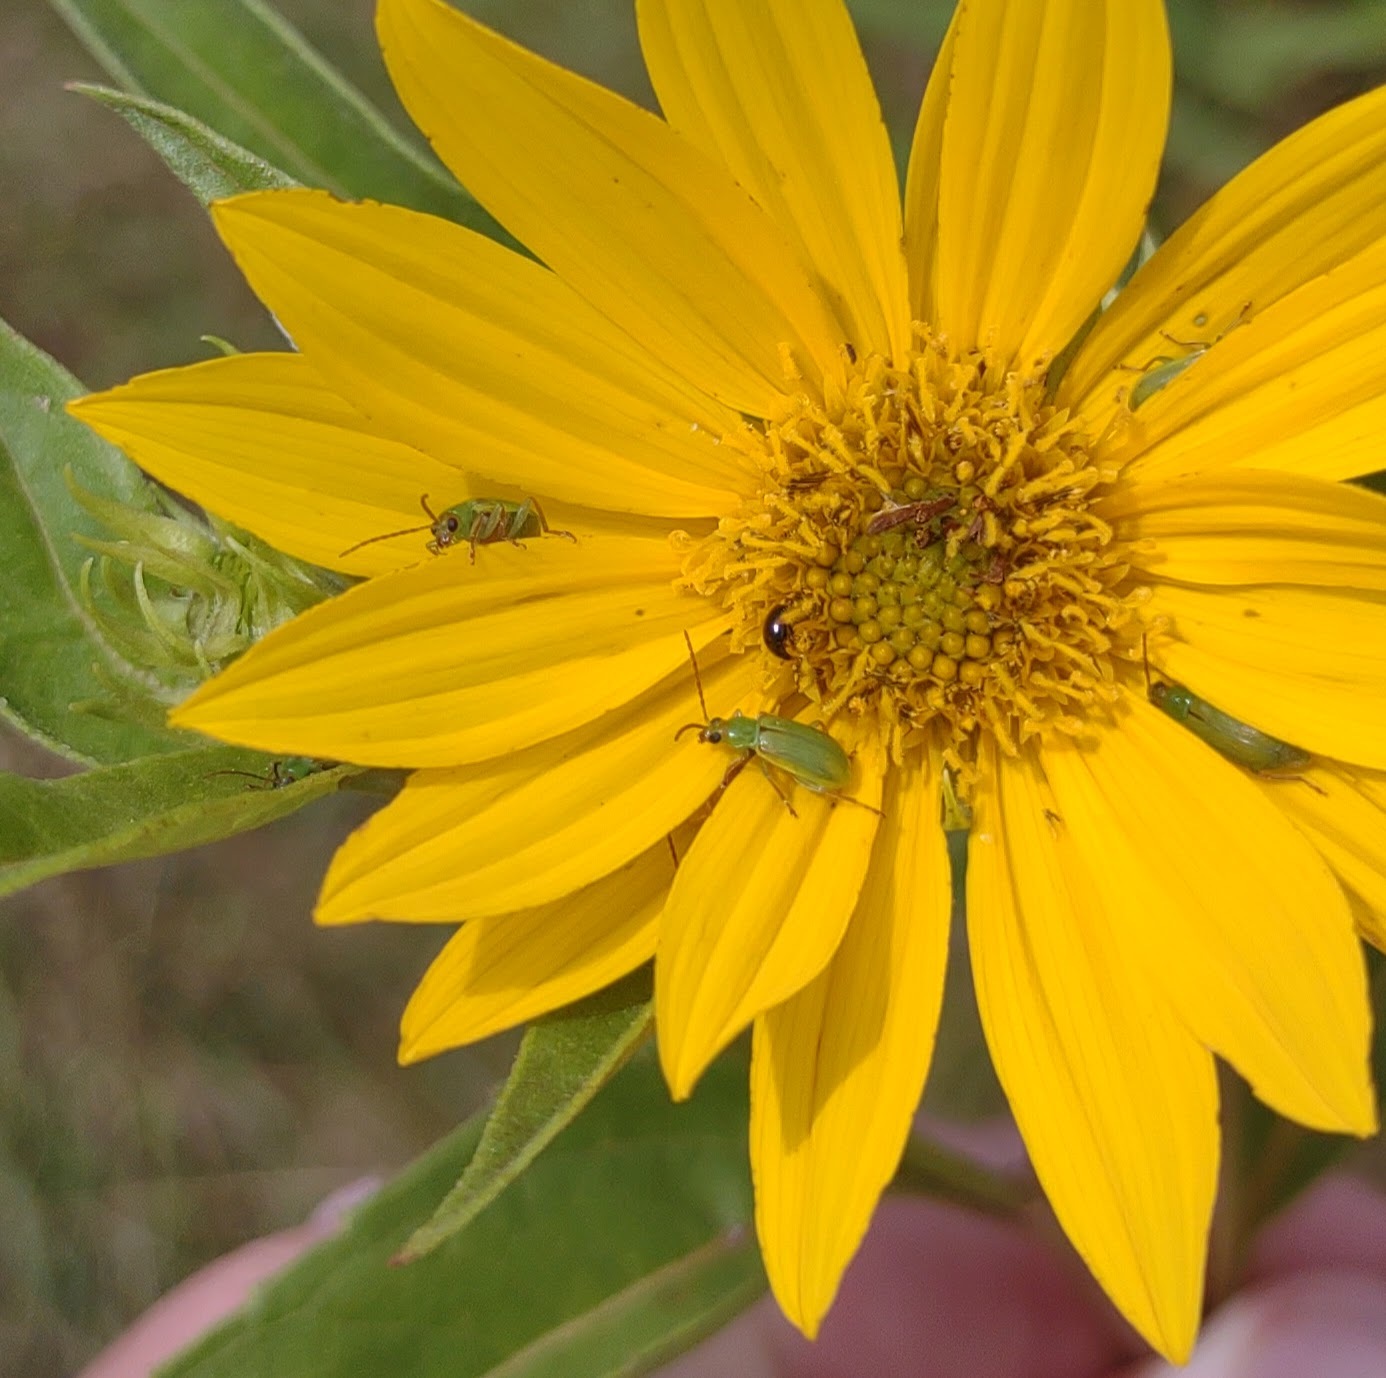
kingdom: Animalia
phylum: Arthropoda
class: Insecta
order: Coleoptera
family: Chrysomelidae
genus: Diabrotica
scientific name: Diabrotica barberi
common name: Northern corn rootworm
